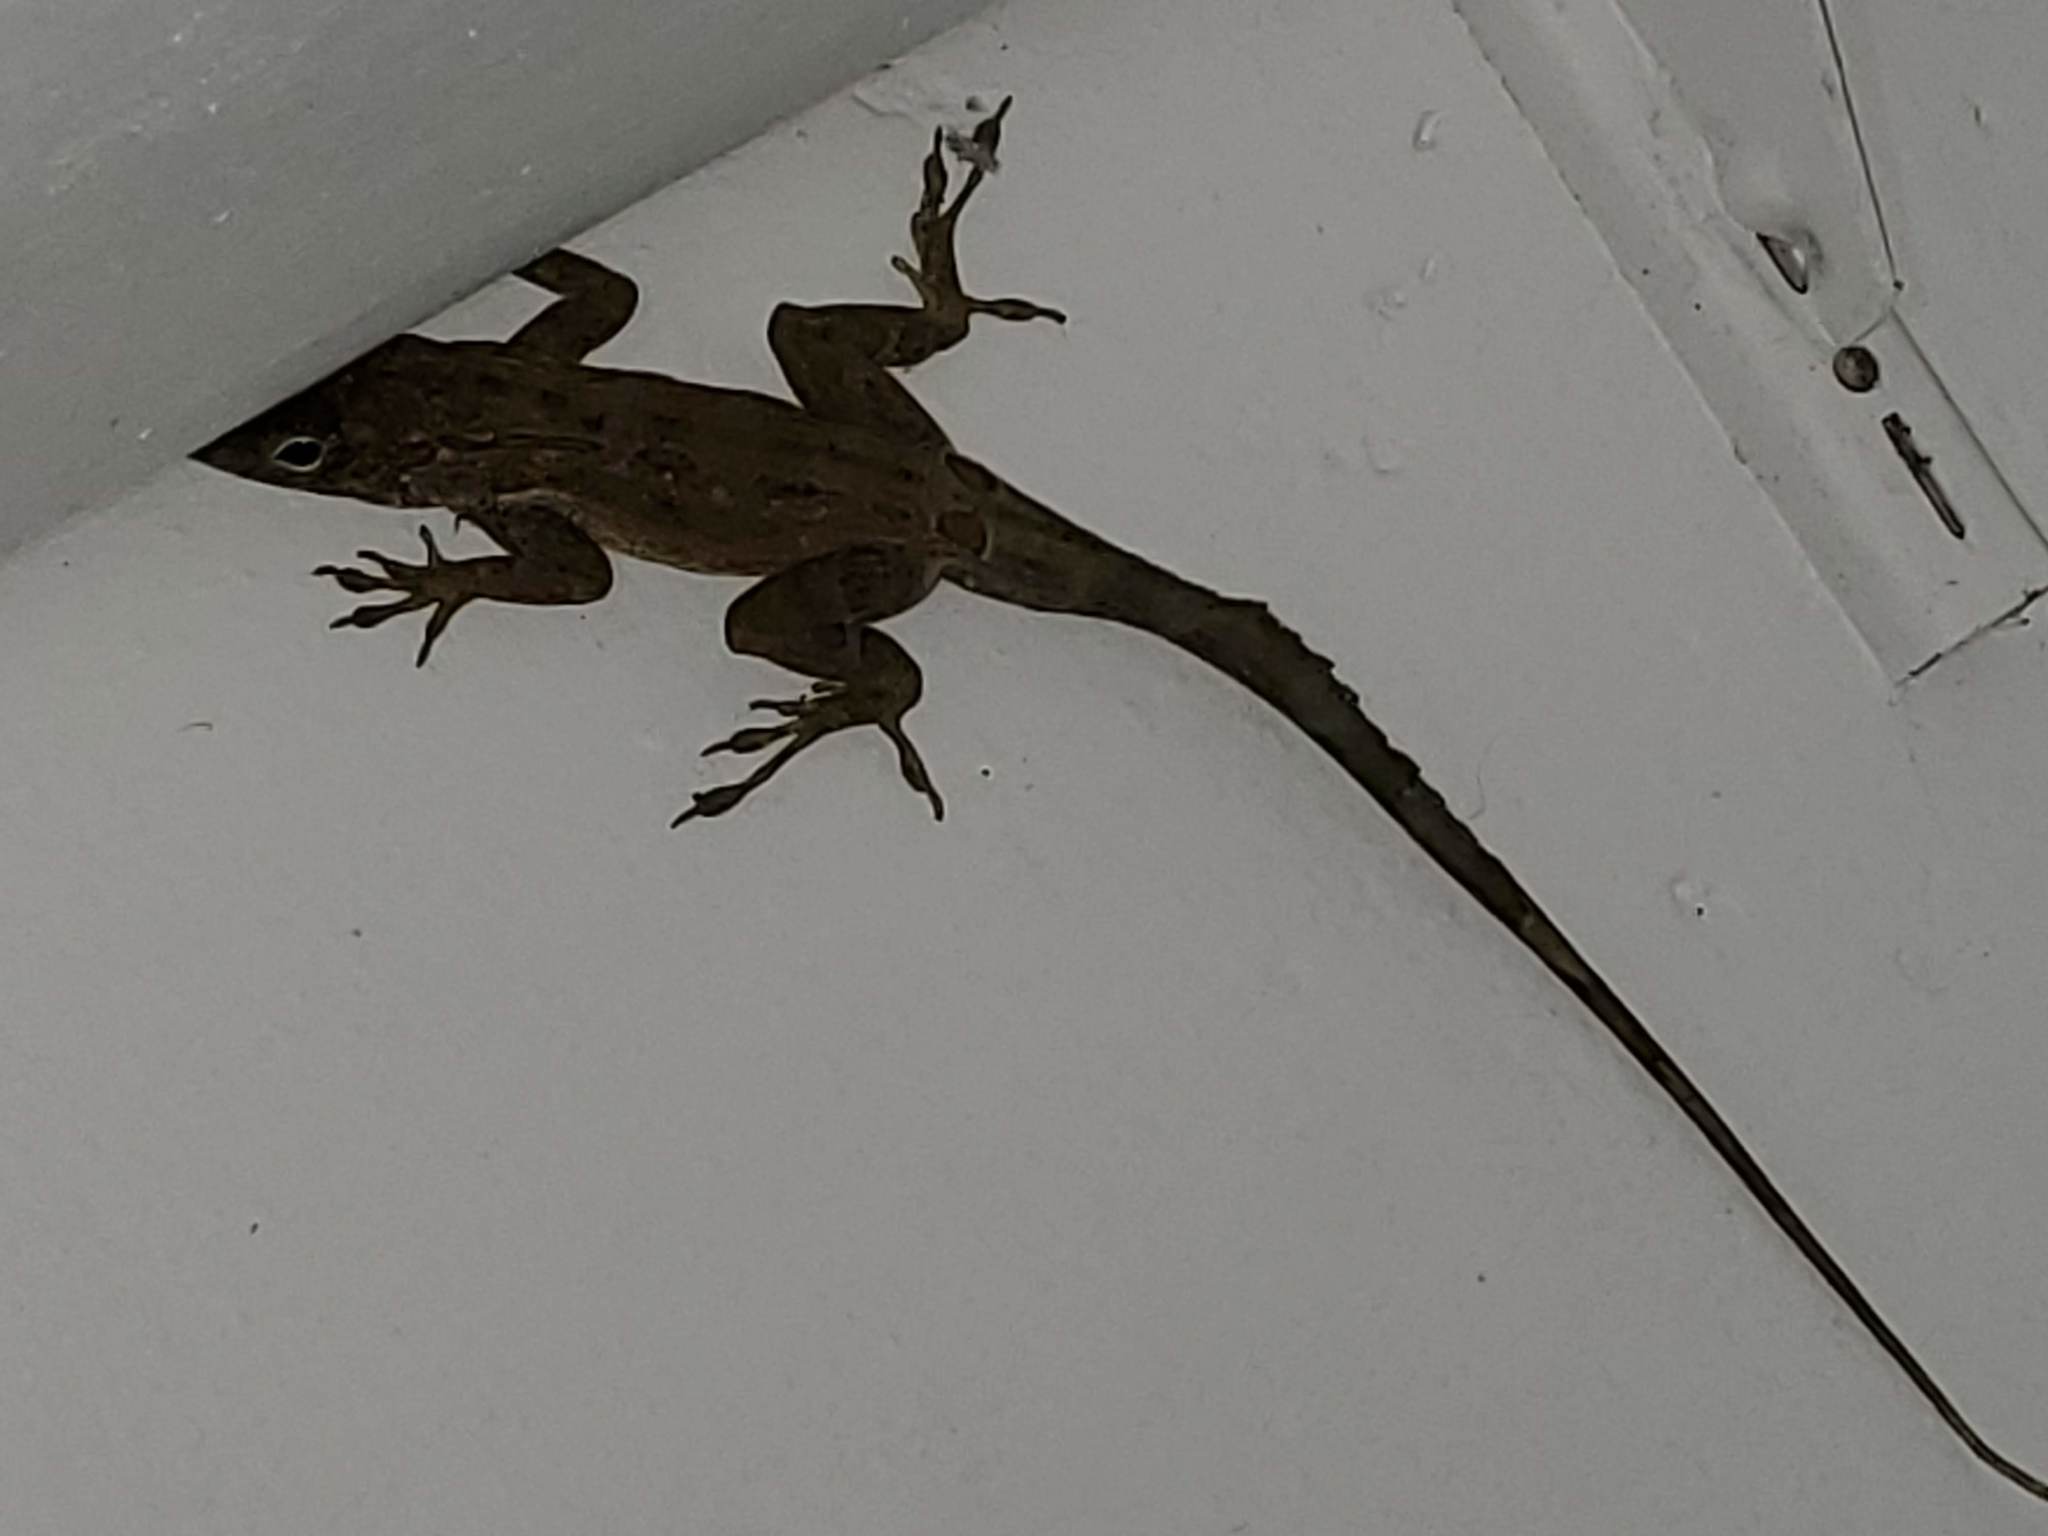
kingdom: Animalia
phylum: Chordata
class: Squamata
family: Dactyloidae
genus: Anolis
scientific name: Anolis cristatellus
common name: Crested anole
